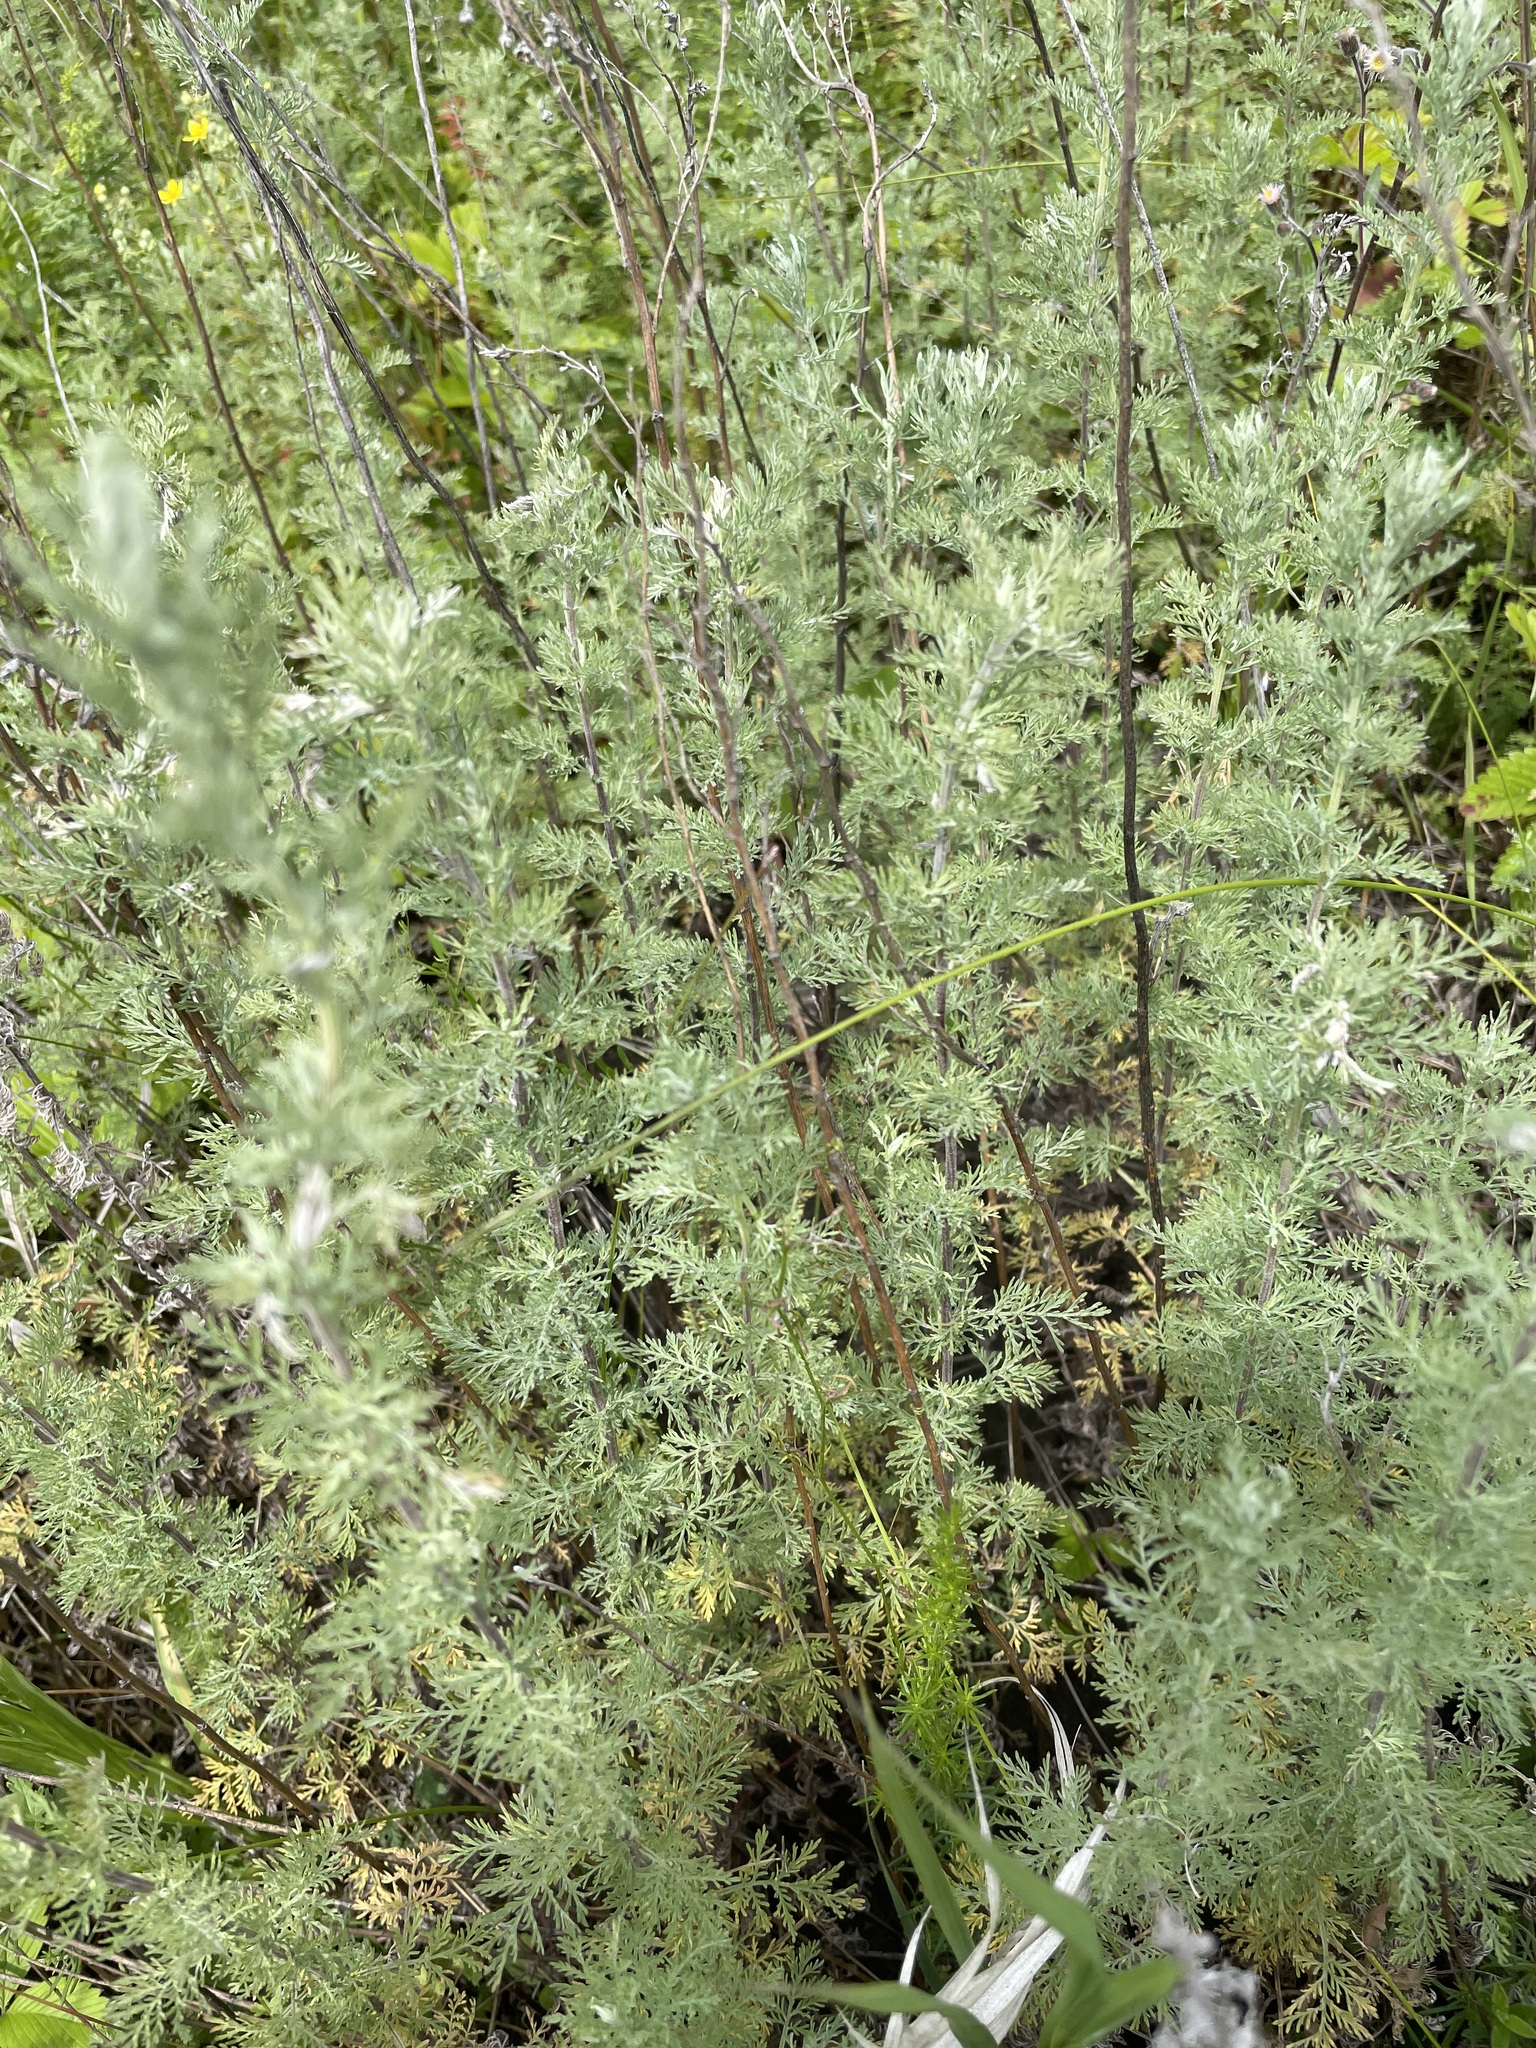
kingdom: Plantae
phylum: Tracheophyta
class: Magnoliopsida
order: Asterales
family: Asteraceae
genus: Artemisia
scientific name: Artemisia pontica
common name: Roman wormwood
